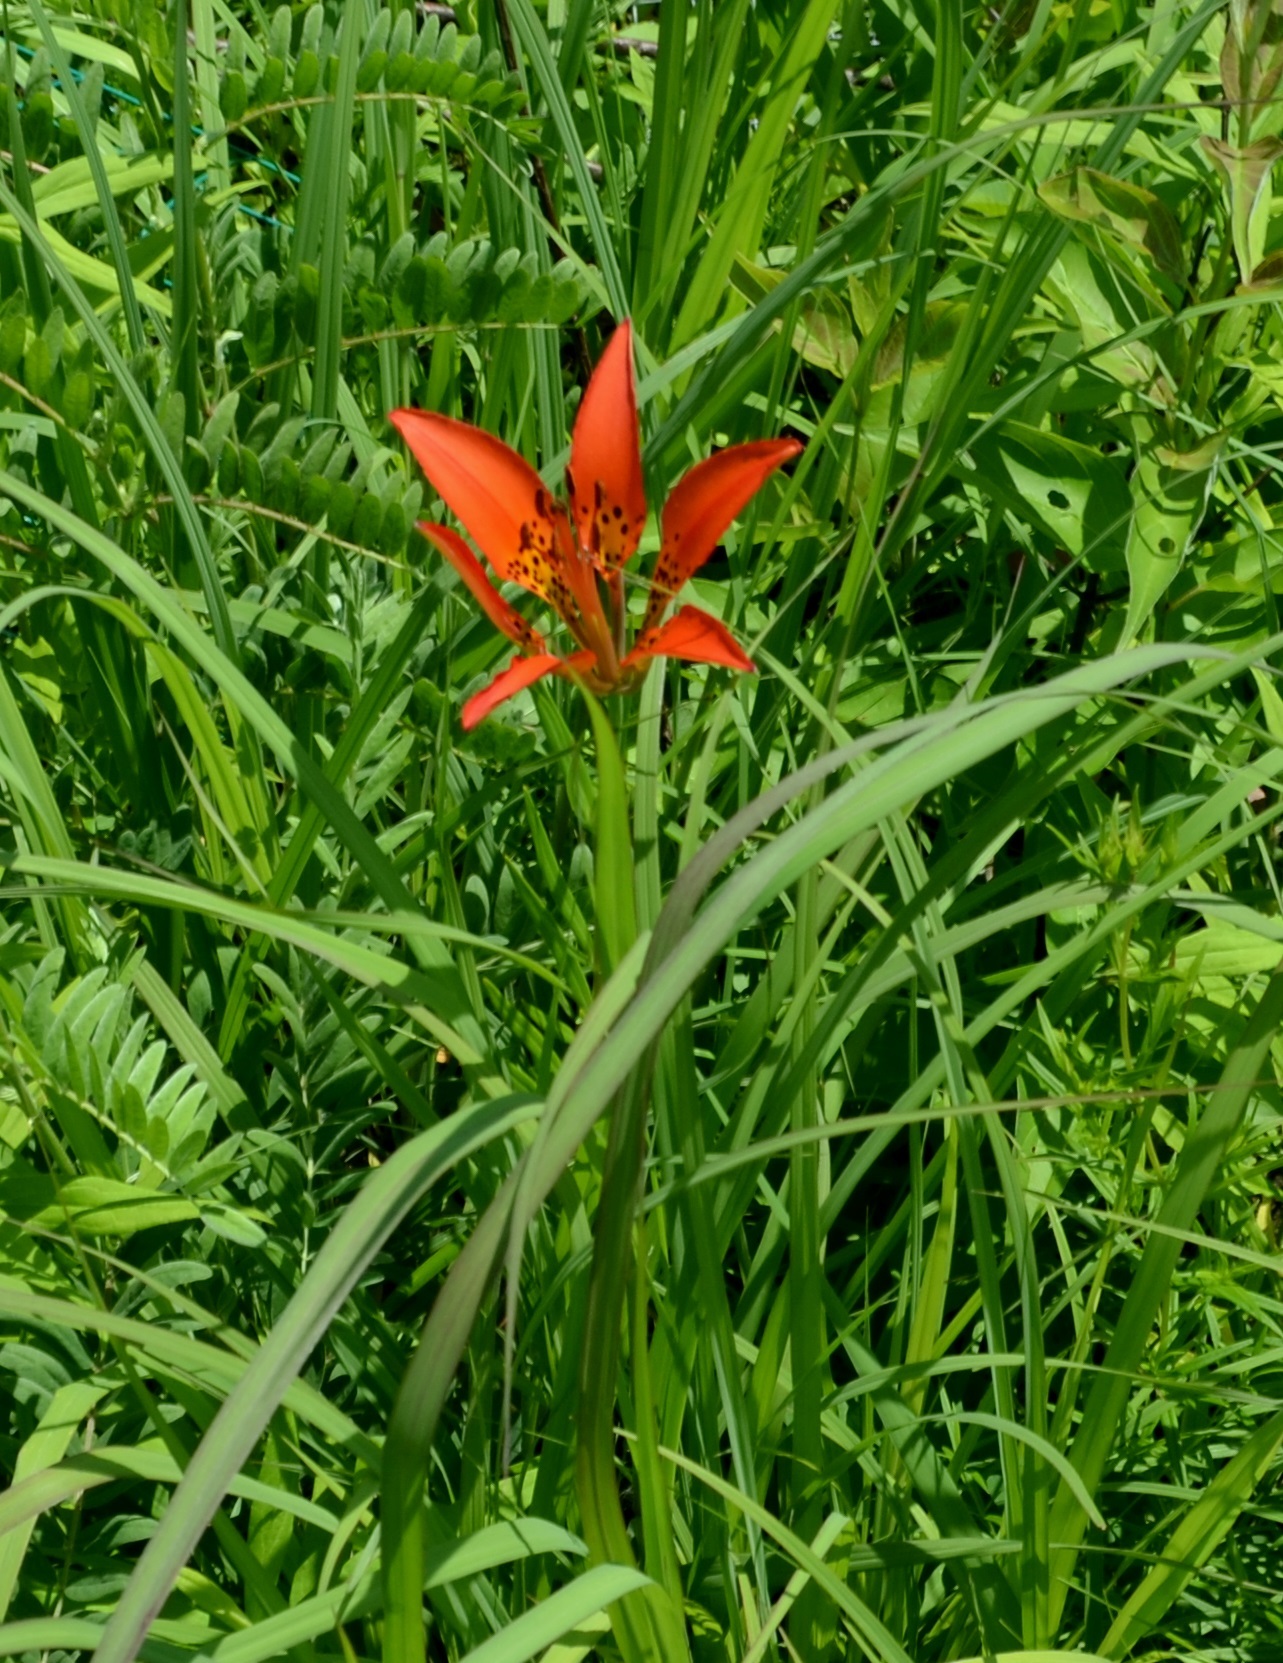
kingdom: Plantae
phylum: Tracheophyta
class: Liliopsida
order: Liliales
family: Liliaceae
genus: Lilium
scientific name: Lilium philadelphicum
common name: Red lily
